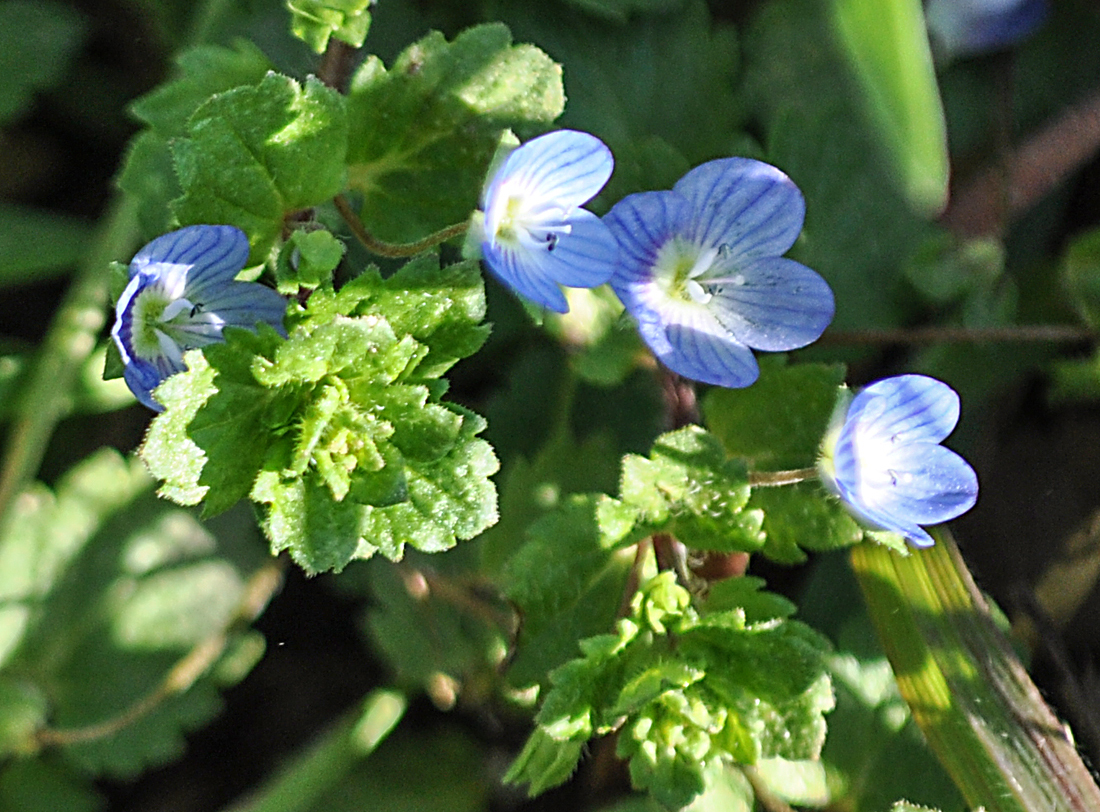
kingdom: Plantae
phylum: Tracheophyta
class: Magnoliopsida
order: Lamiales
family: Plantaginaceae
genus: Veronica
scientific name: Veronica persica
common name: Common field-speedwell
